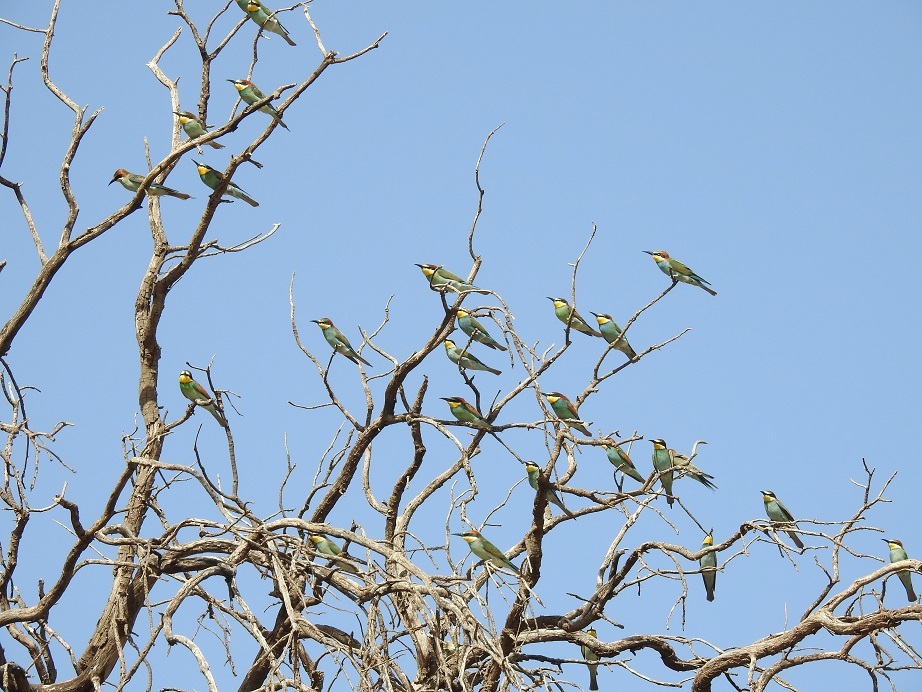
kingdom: Animalia
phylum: Chordata
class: Aves
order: Coraciiformes
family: Meropidae
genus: Merops
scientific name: Merops apiaster
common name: European bee-eater
